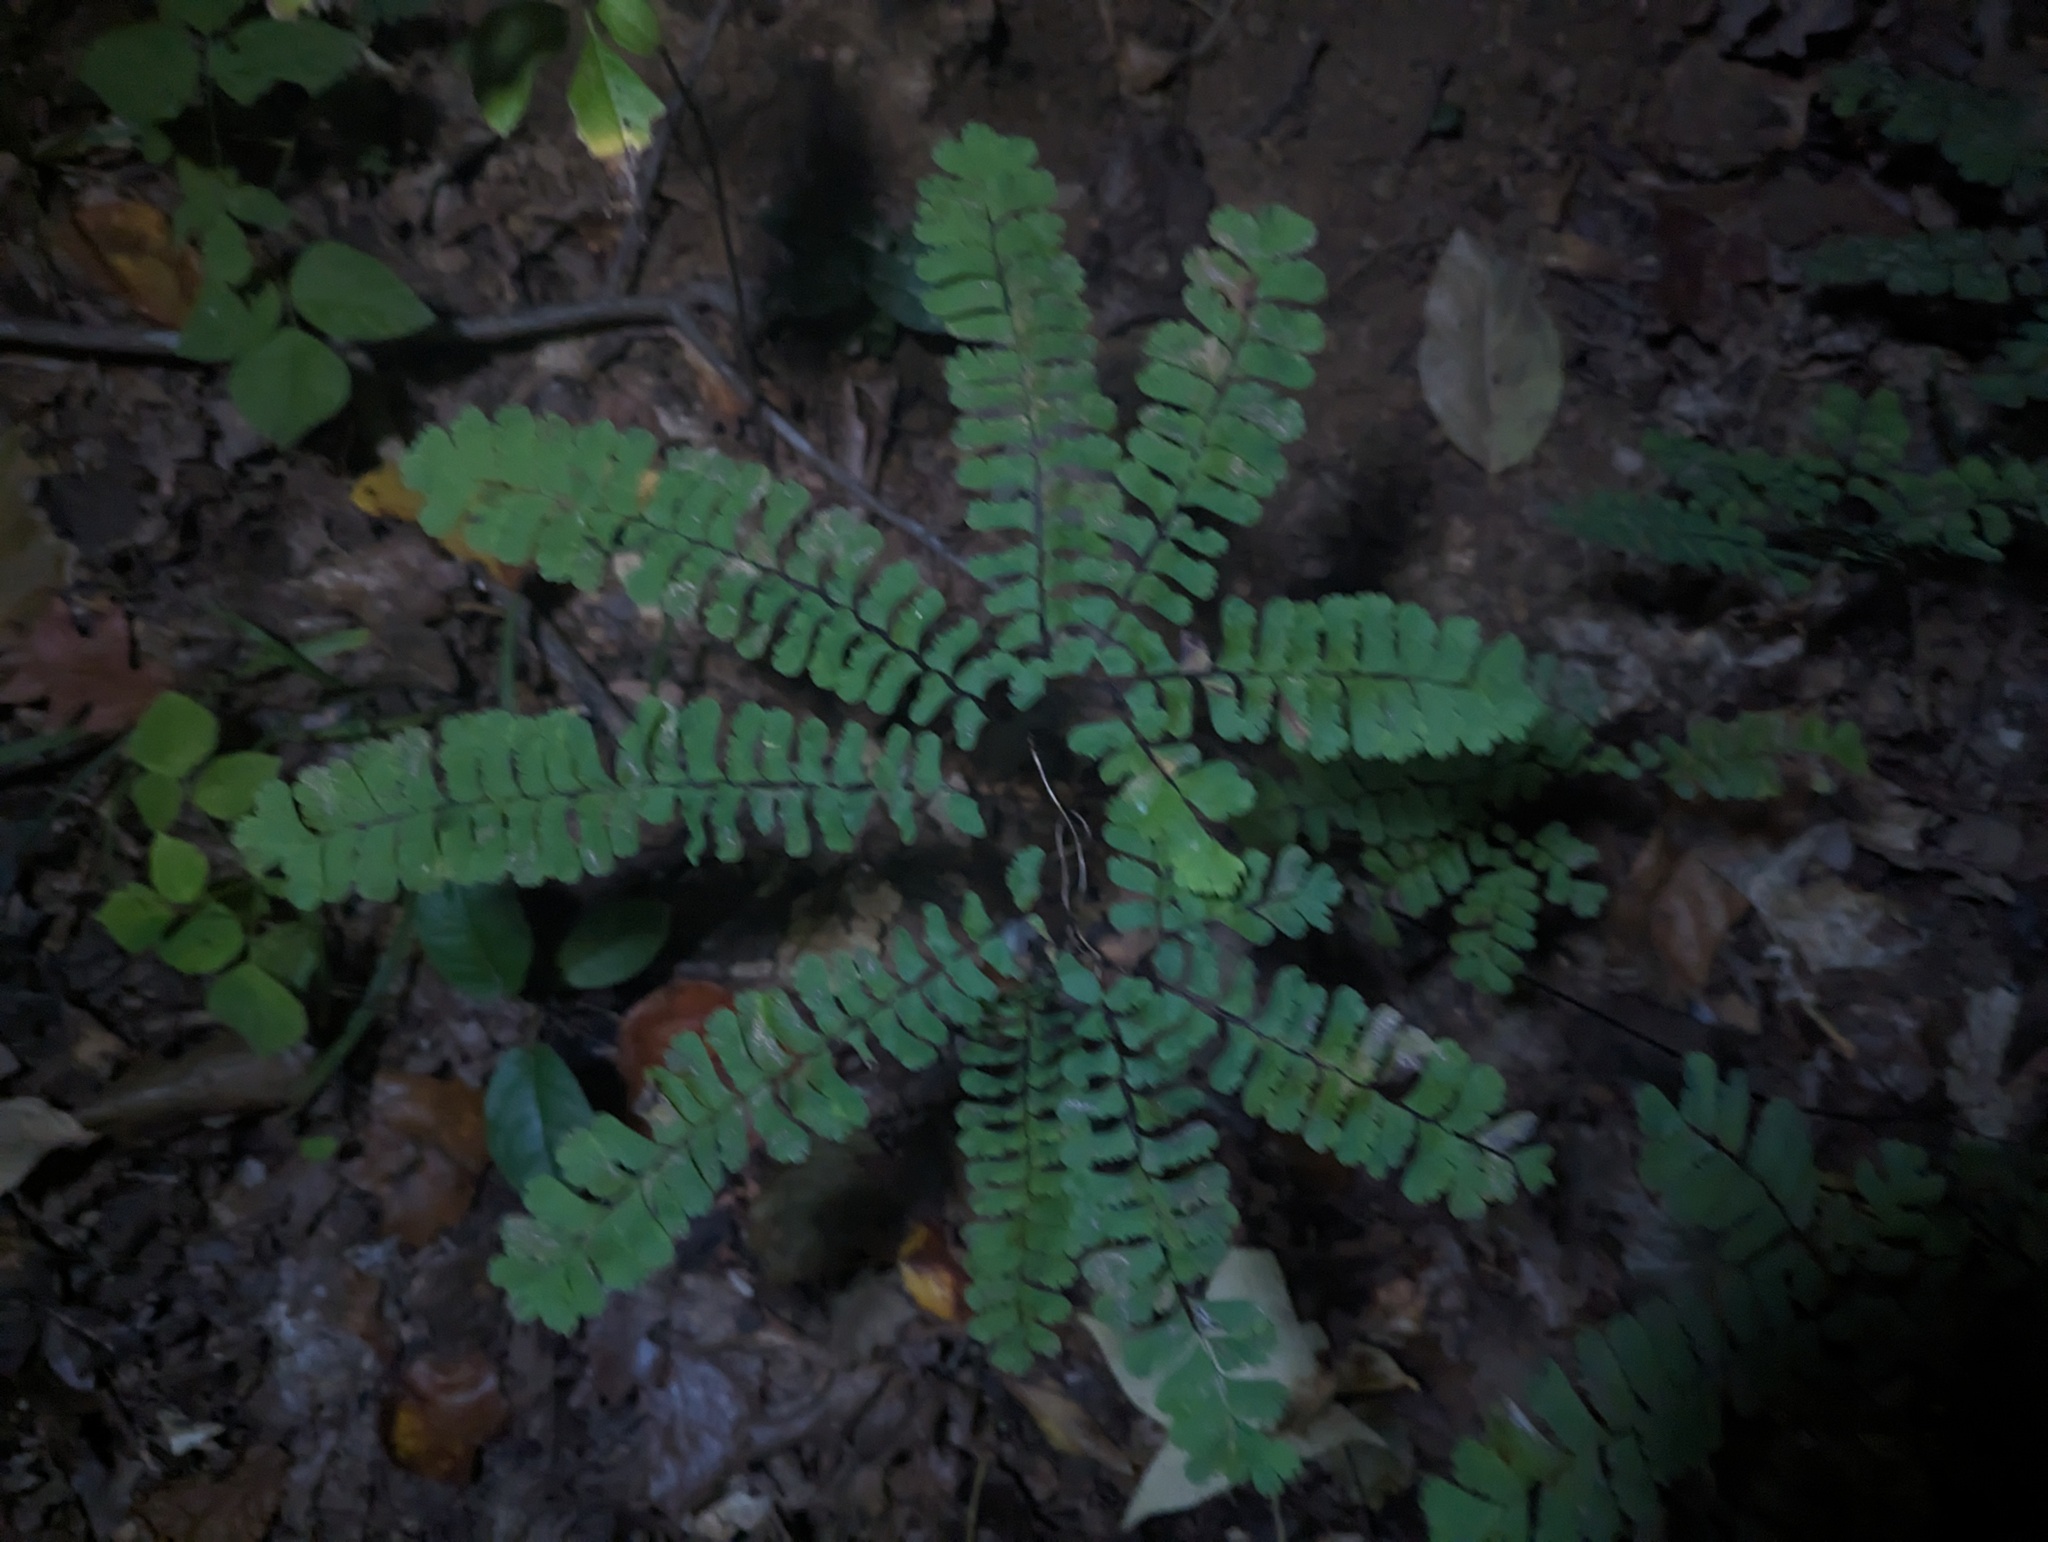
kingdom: Plantae
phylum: Tracheophyta
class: Polypodiopsida
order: Polypodiales
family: Pteridaceae
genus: Adiantum
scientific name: Adiantum pedatum
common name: Five-finger fern
